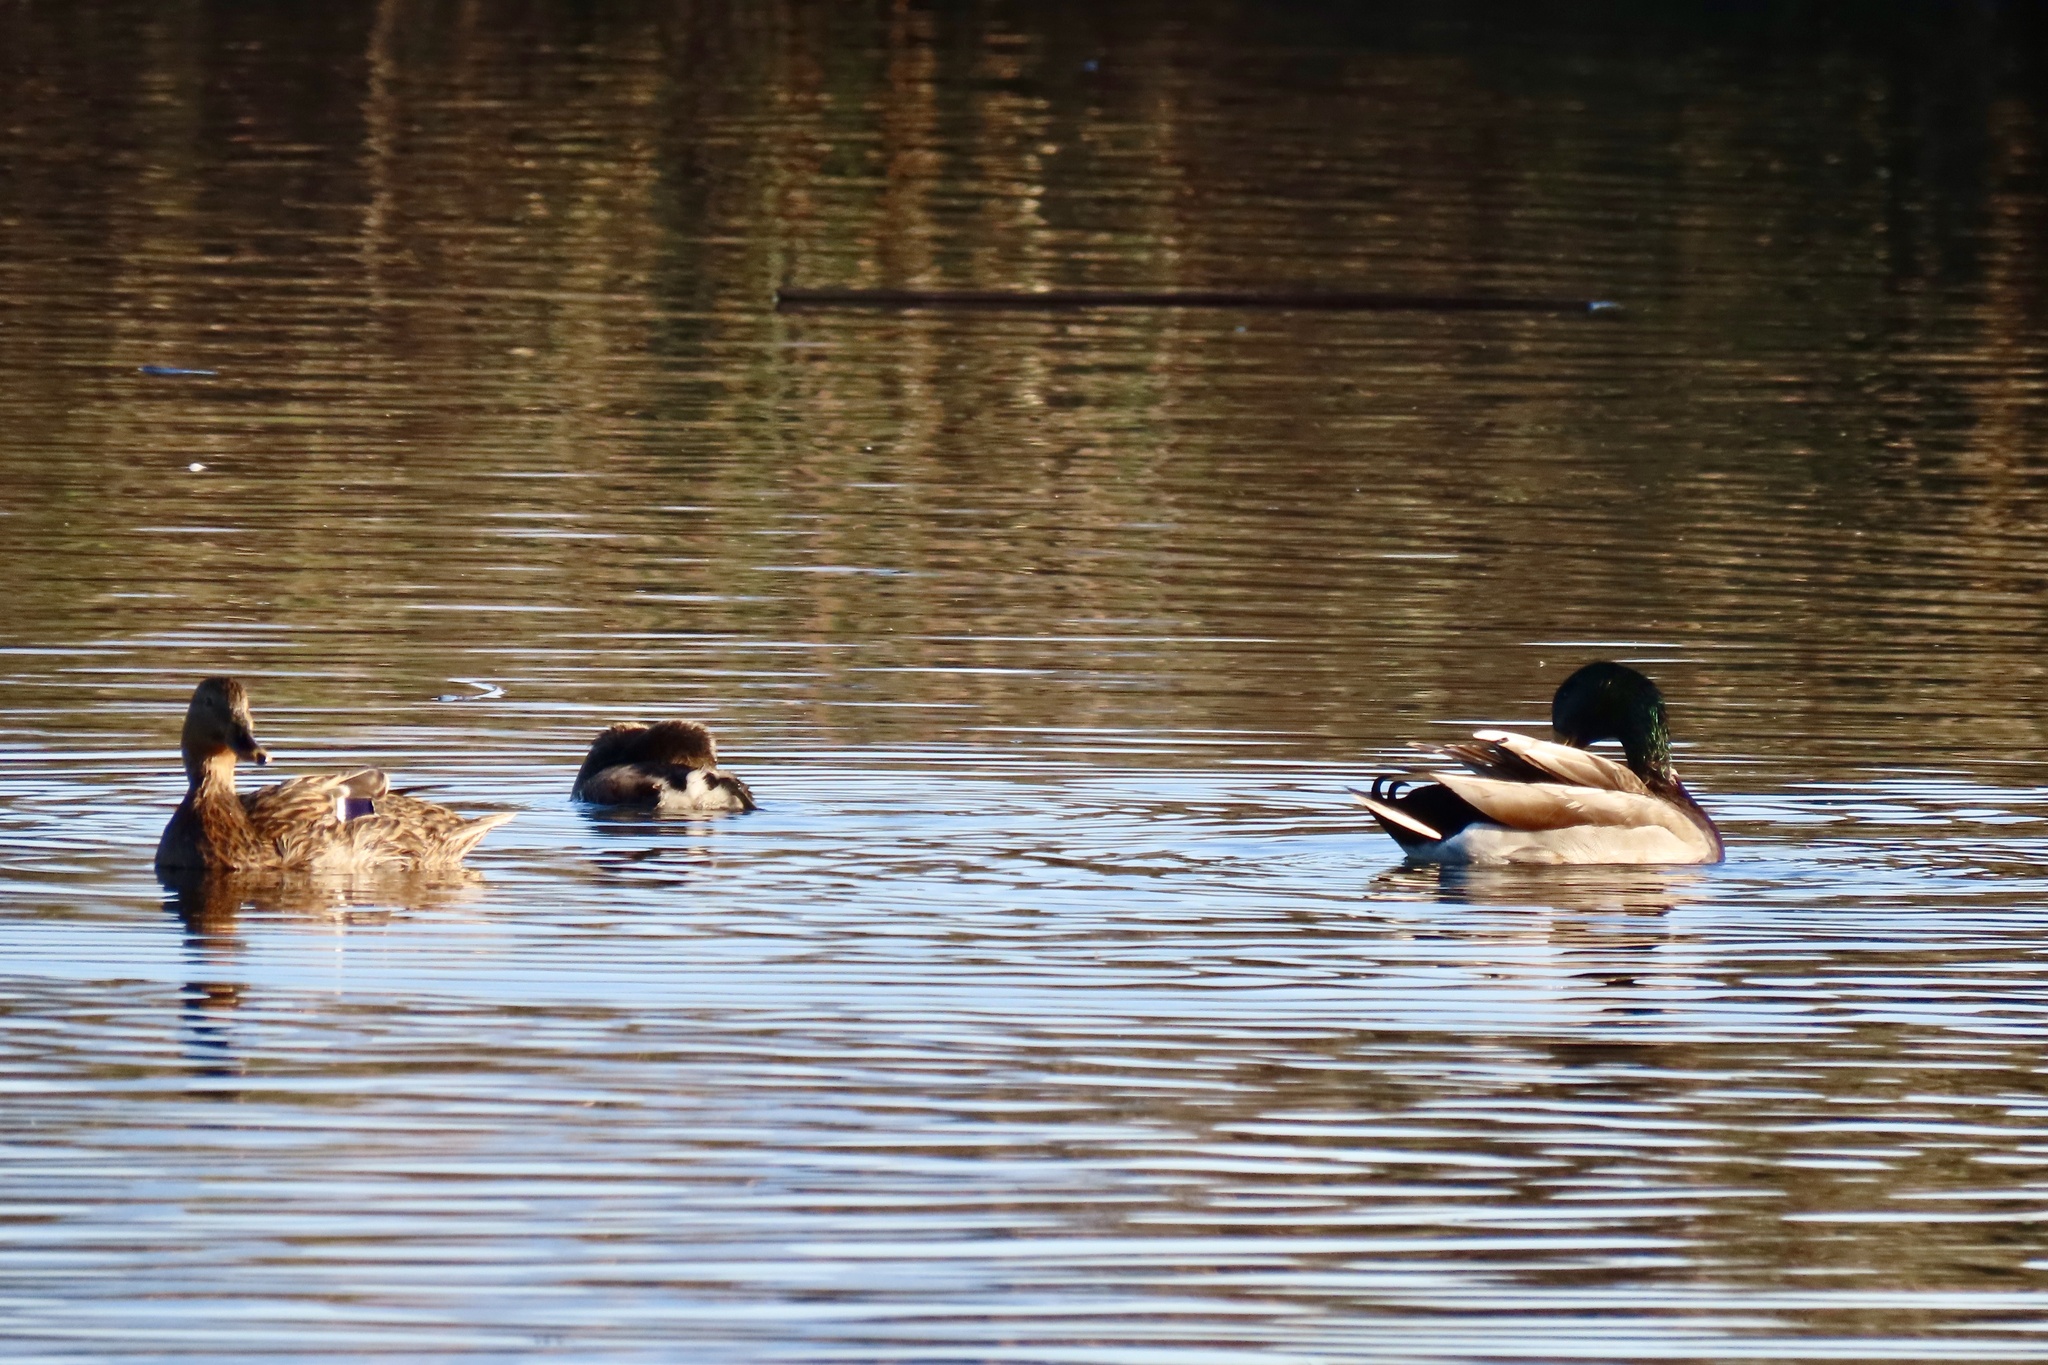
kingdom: Animalia
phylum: Chordata
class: Aves
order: Anseriformes
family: Anatidae
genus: Anas
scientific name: Anas platyrhynchos
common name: Mallard
